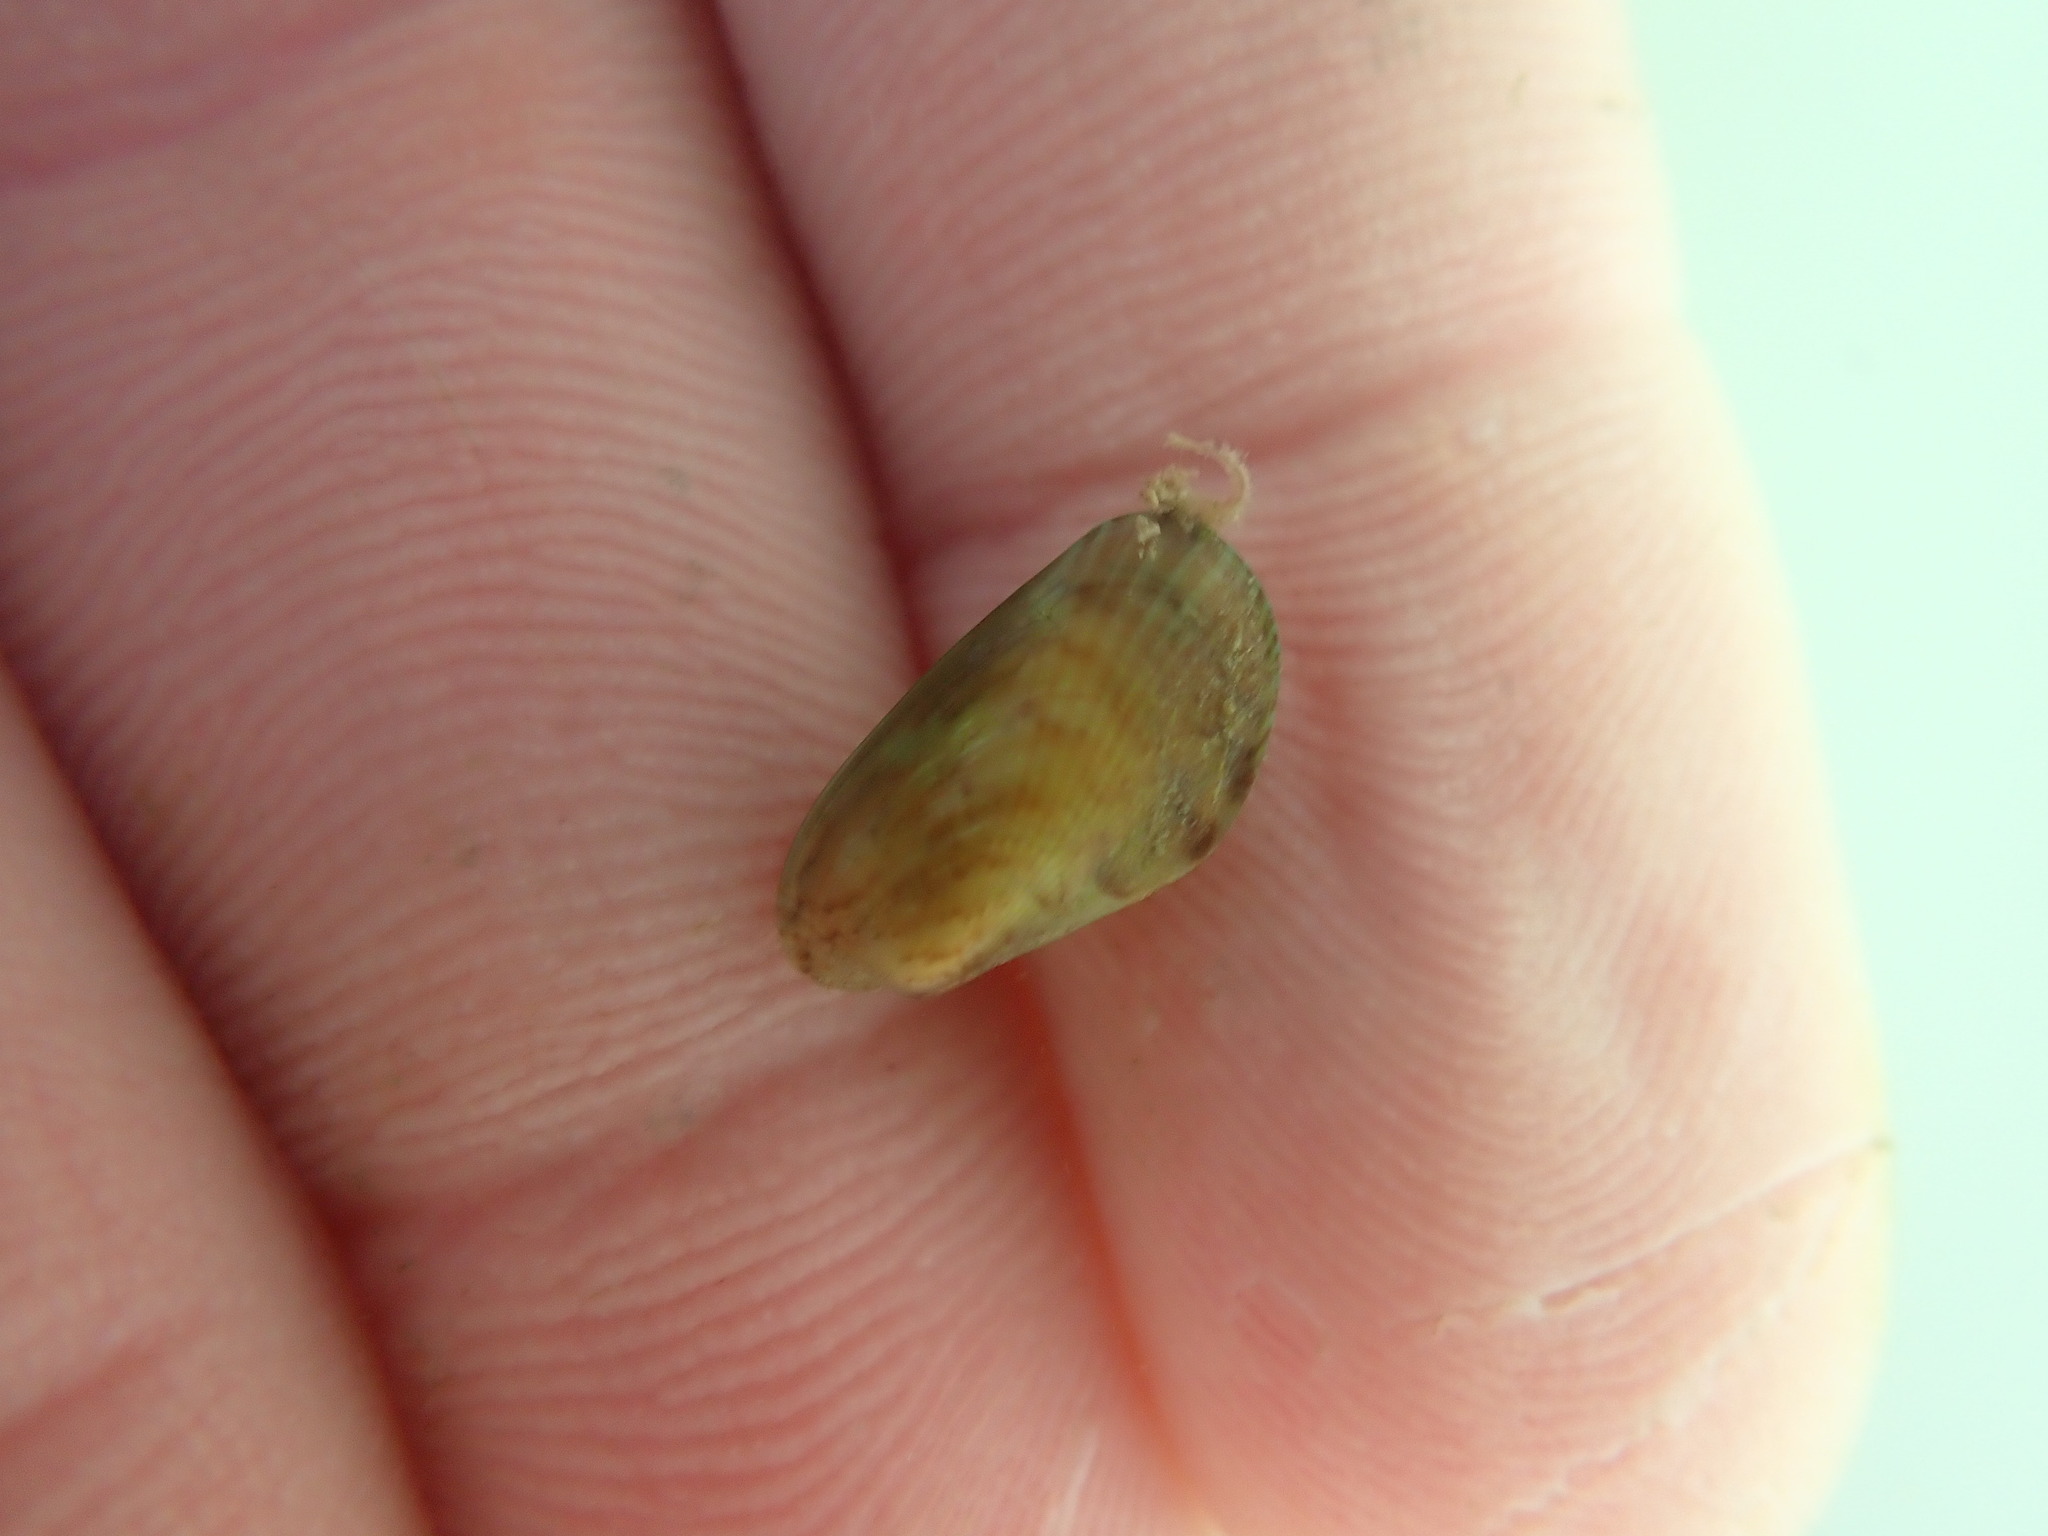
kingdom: Animalia
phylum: Mollusca
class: Bivalvia
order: Mytilida
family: Mytilidae
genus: Arcuatula
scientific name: Arcuatula senhousia
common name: Asian mussel
